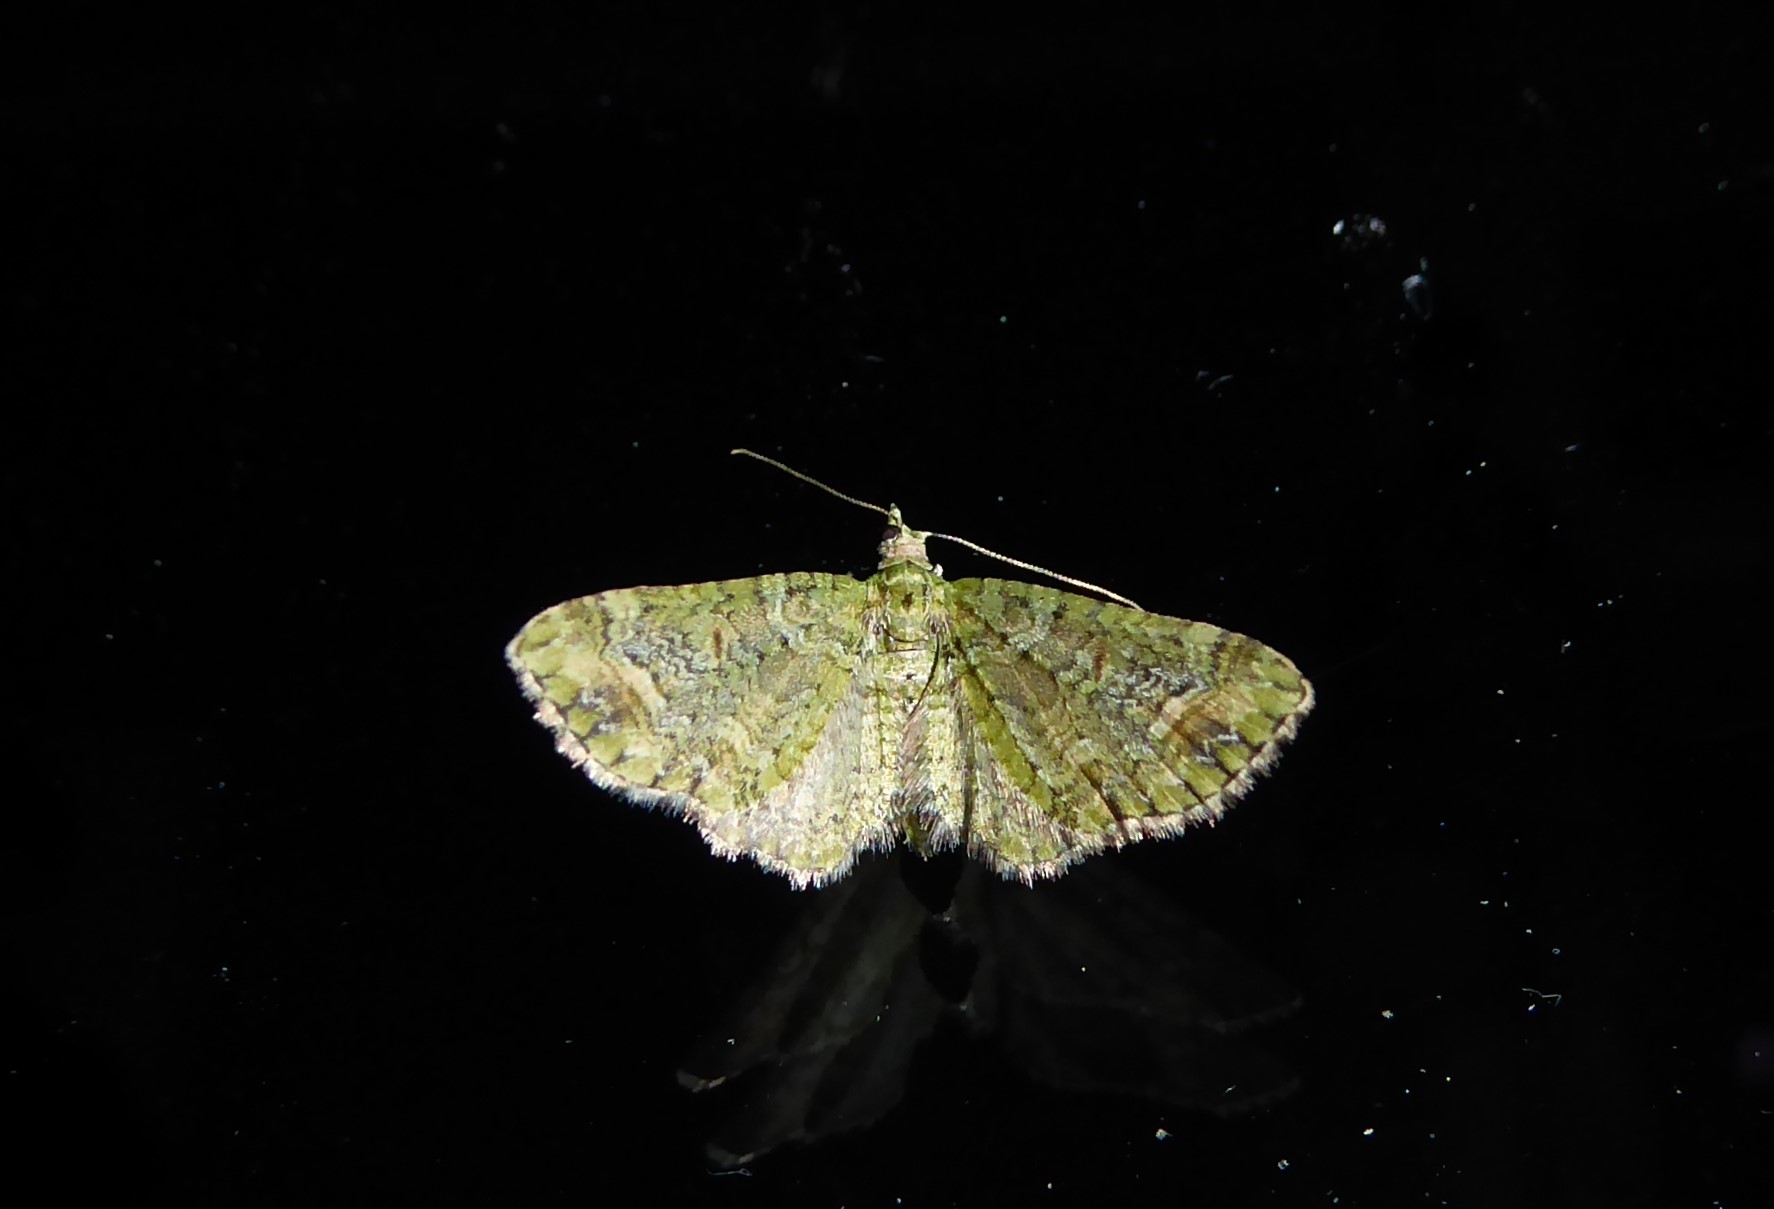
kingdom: Animalia
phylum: Arthropoda
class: Insecta
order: Lepidoptera
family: Geometridae
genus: Idaea
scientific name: Idaea mutanda
